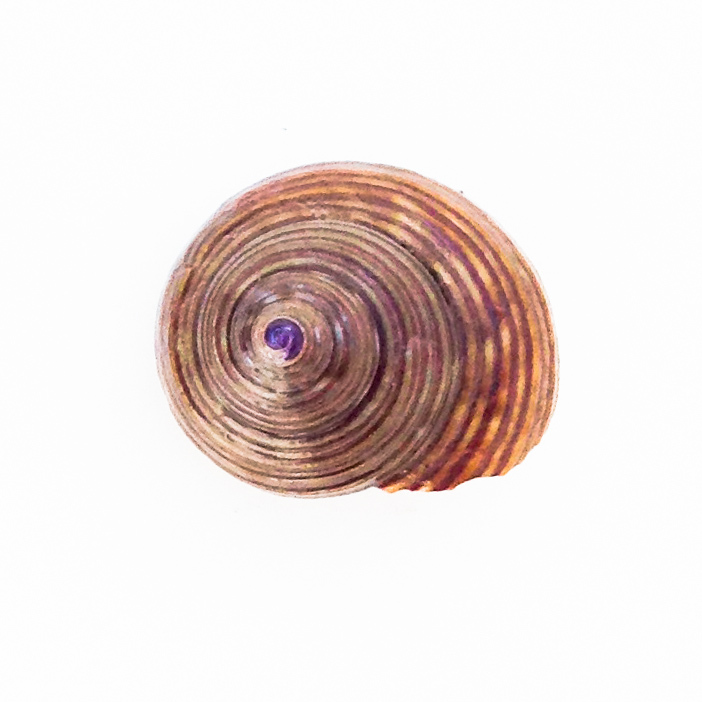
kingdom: Animalia
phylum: Mollusca
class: Gastropoda
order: Trochida
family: Calliostomatidae
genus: Calliostoma
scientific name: Calliostoma ligatum
